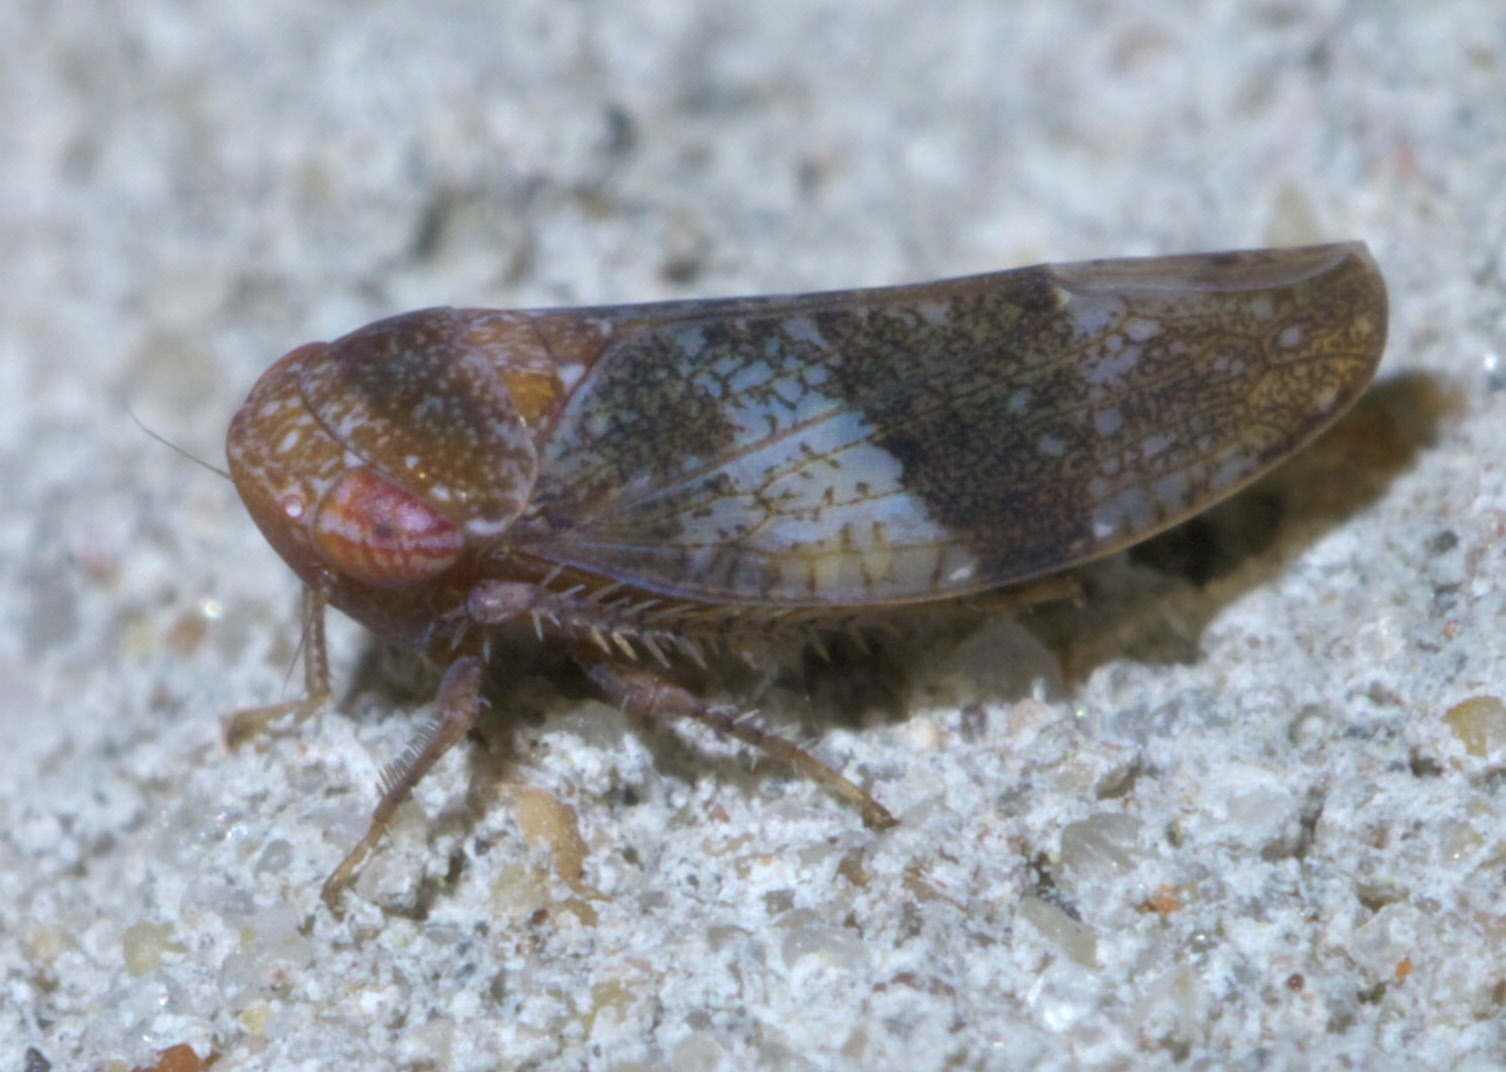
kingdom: Animalia
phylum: Arthropoda
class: Insecta
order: Hemiptera
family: Cicadellidae
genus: Norvellina
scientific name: Norvellina helenae
